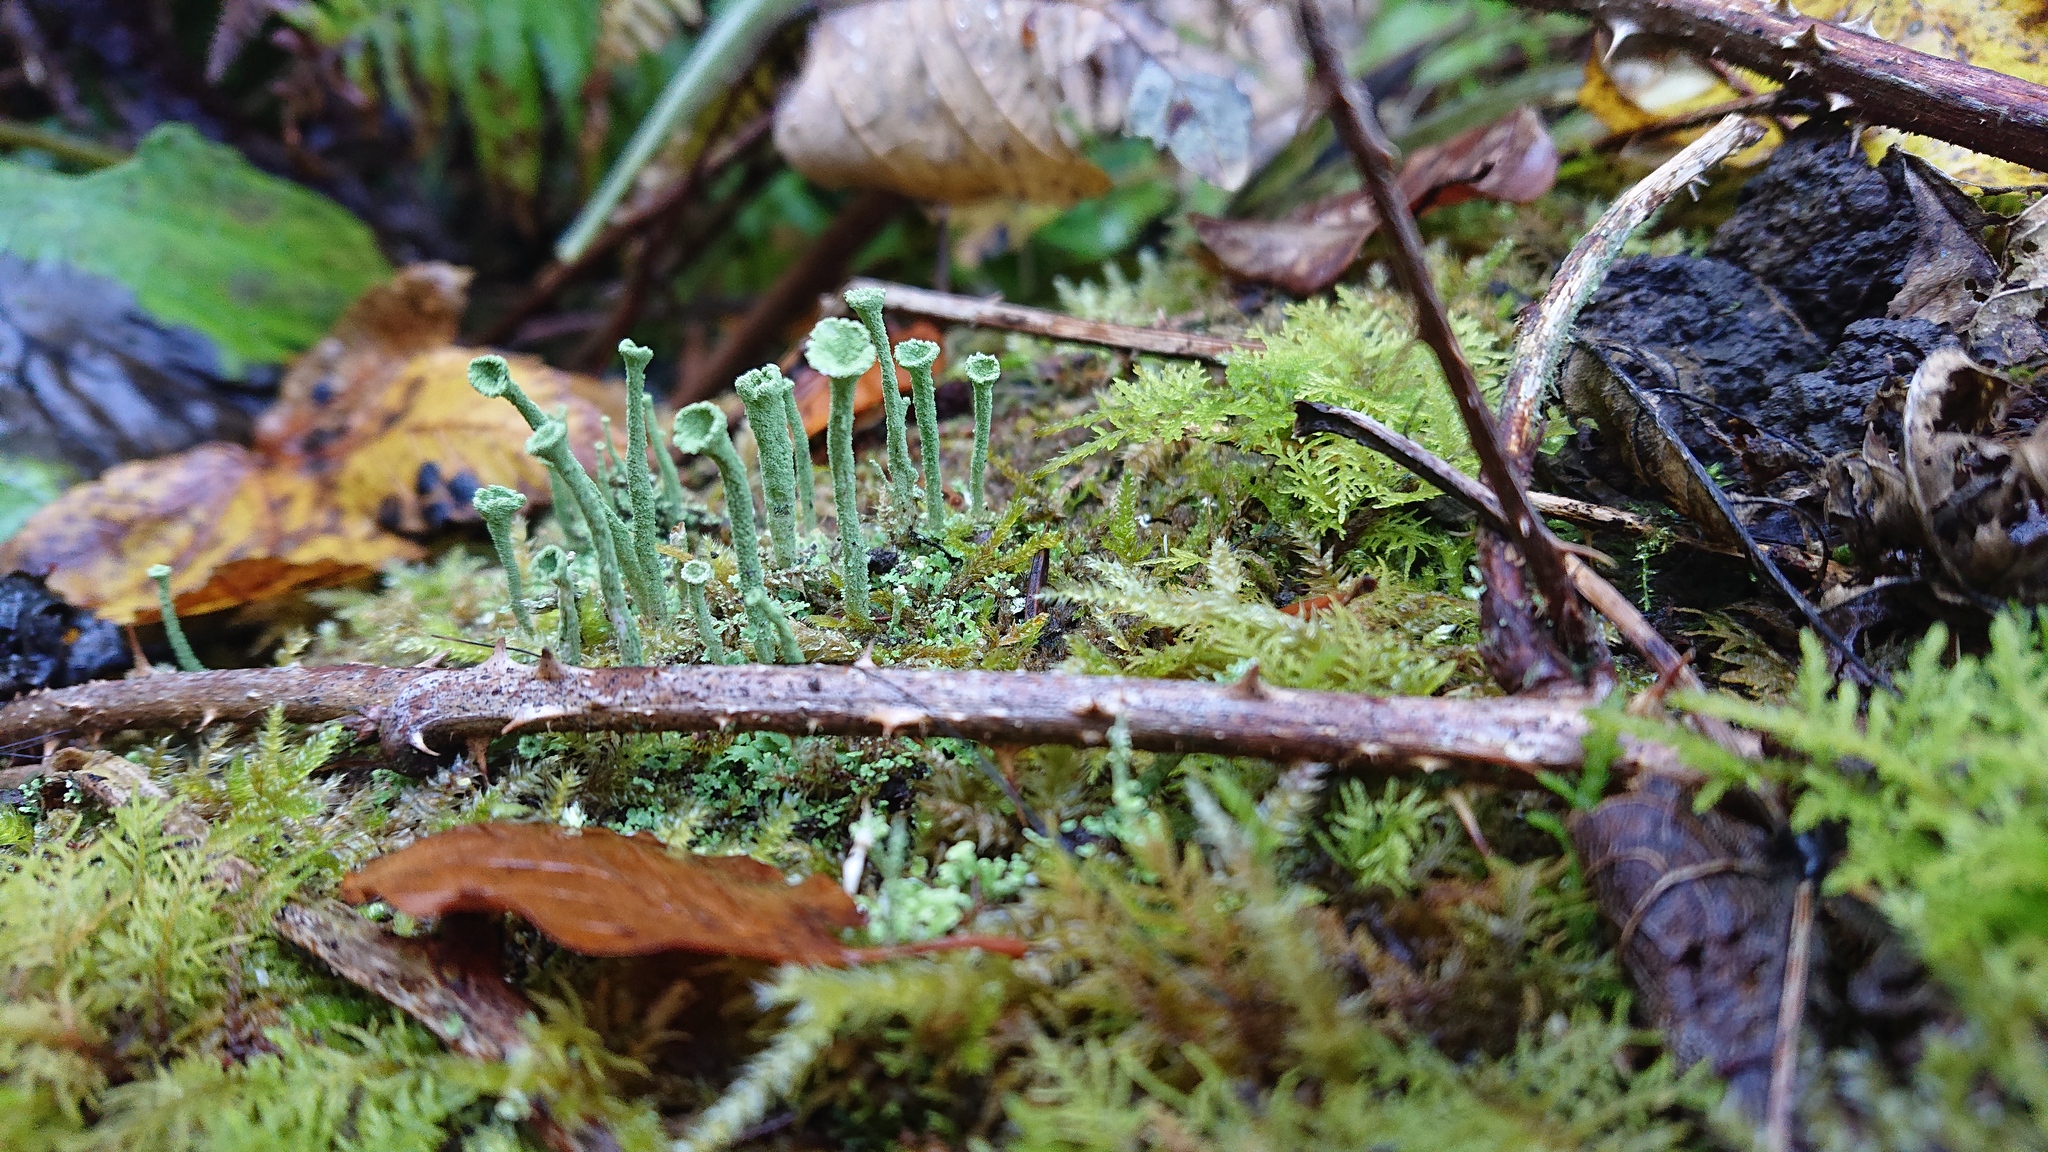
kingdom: Fungi
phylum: Ascomycota
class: Lecanoromycetes
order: Lecanorales
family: Cladoniaceae
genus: Cladonia
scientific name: Cladonia fimbriata
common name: Powdered trumpet lichen
